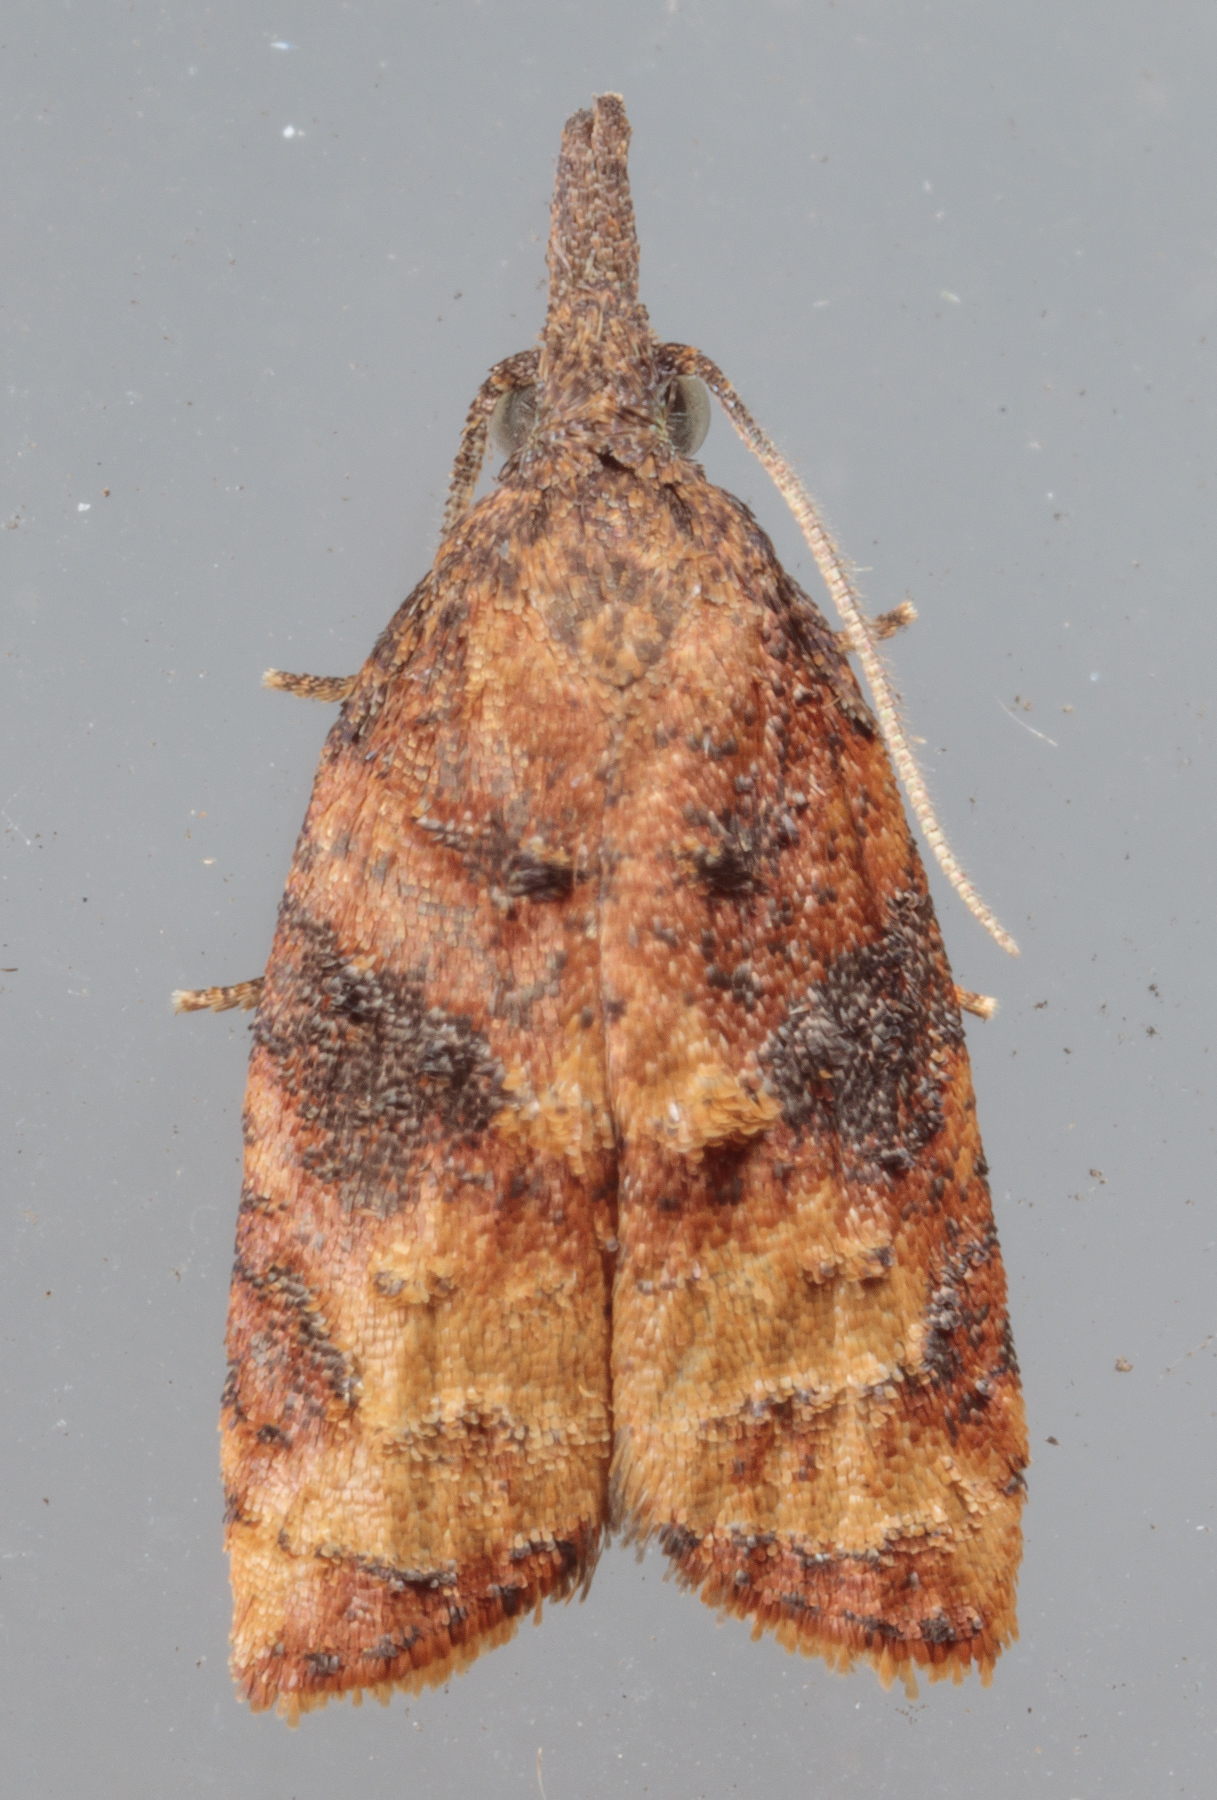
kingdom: Animalia
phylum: Arthropoda
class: Insecta
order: Lepidoptera
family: Tortricidae
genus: Platynota
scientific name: Platynota stultana
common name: Omnivorous leafroller
